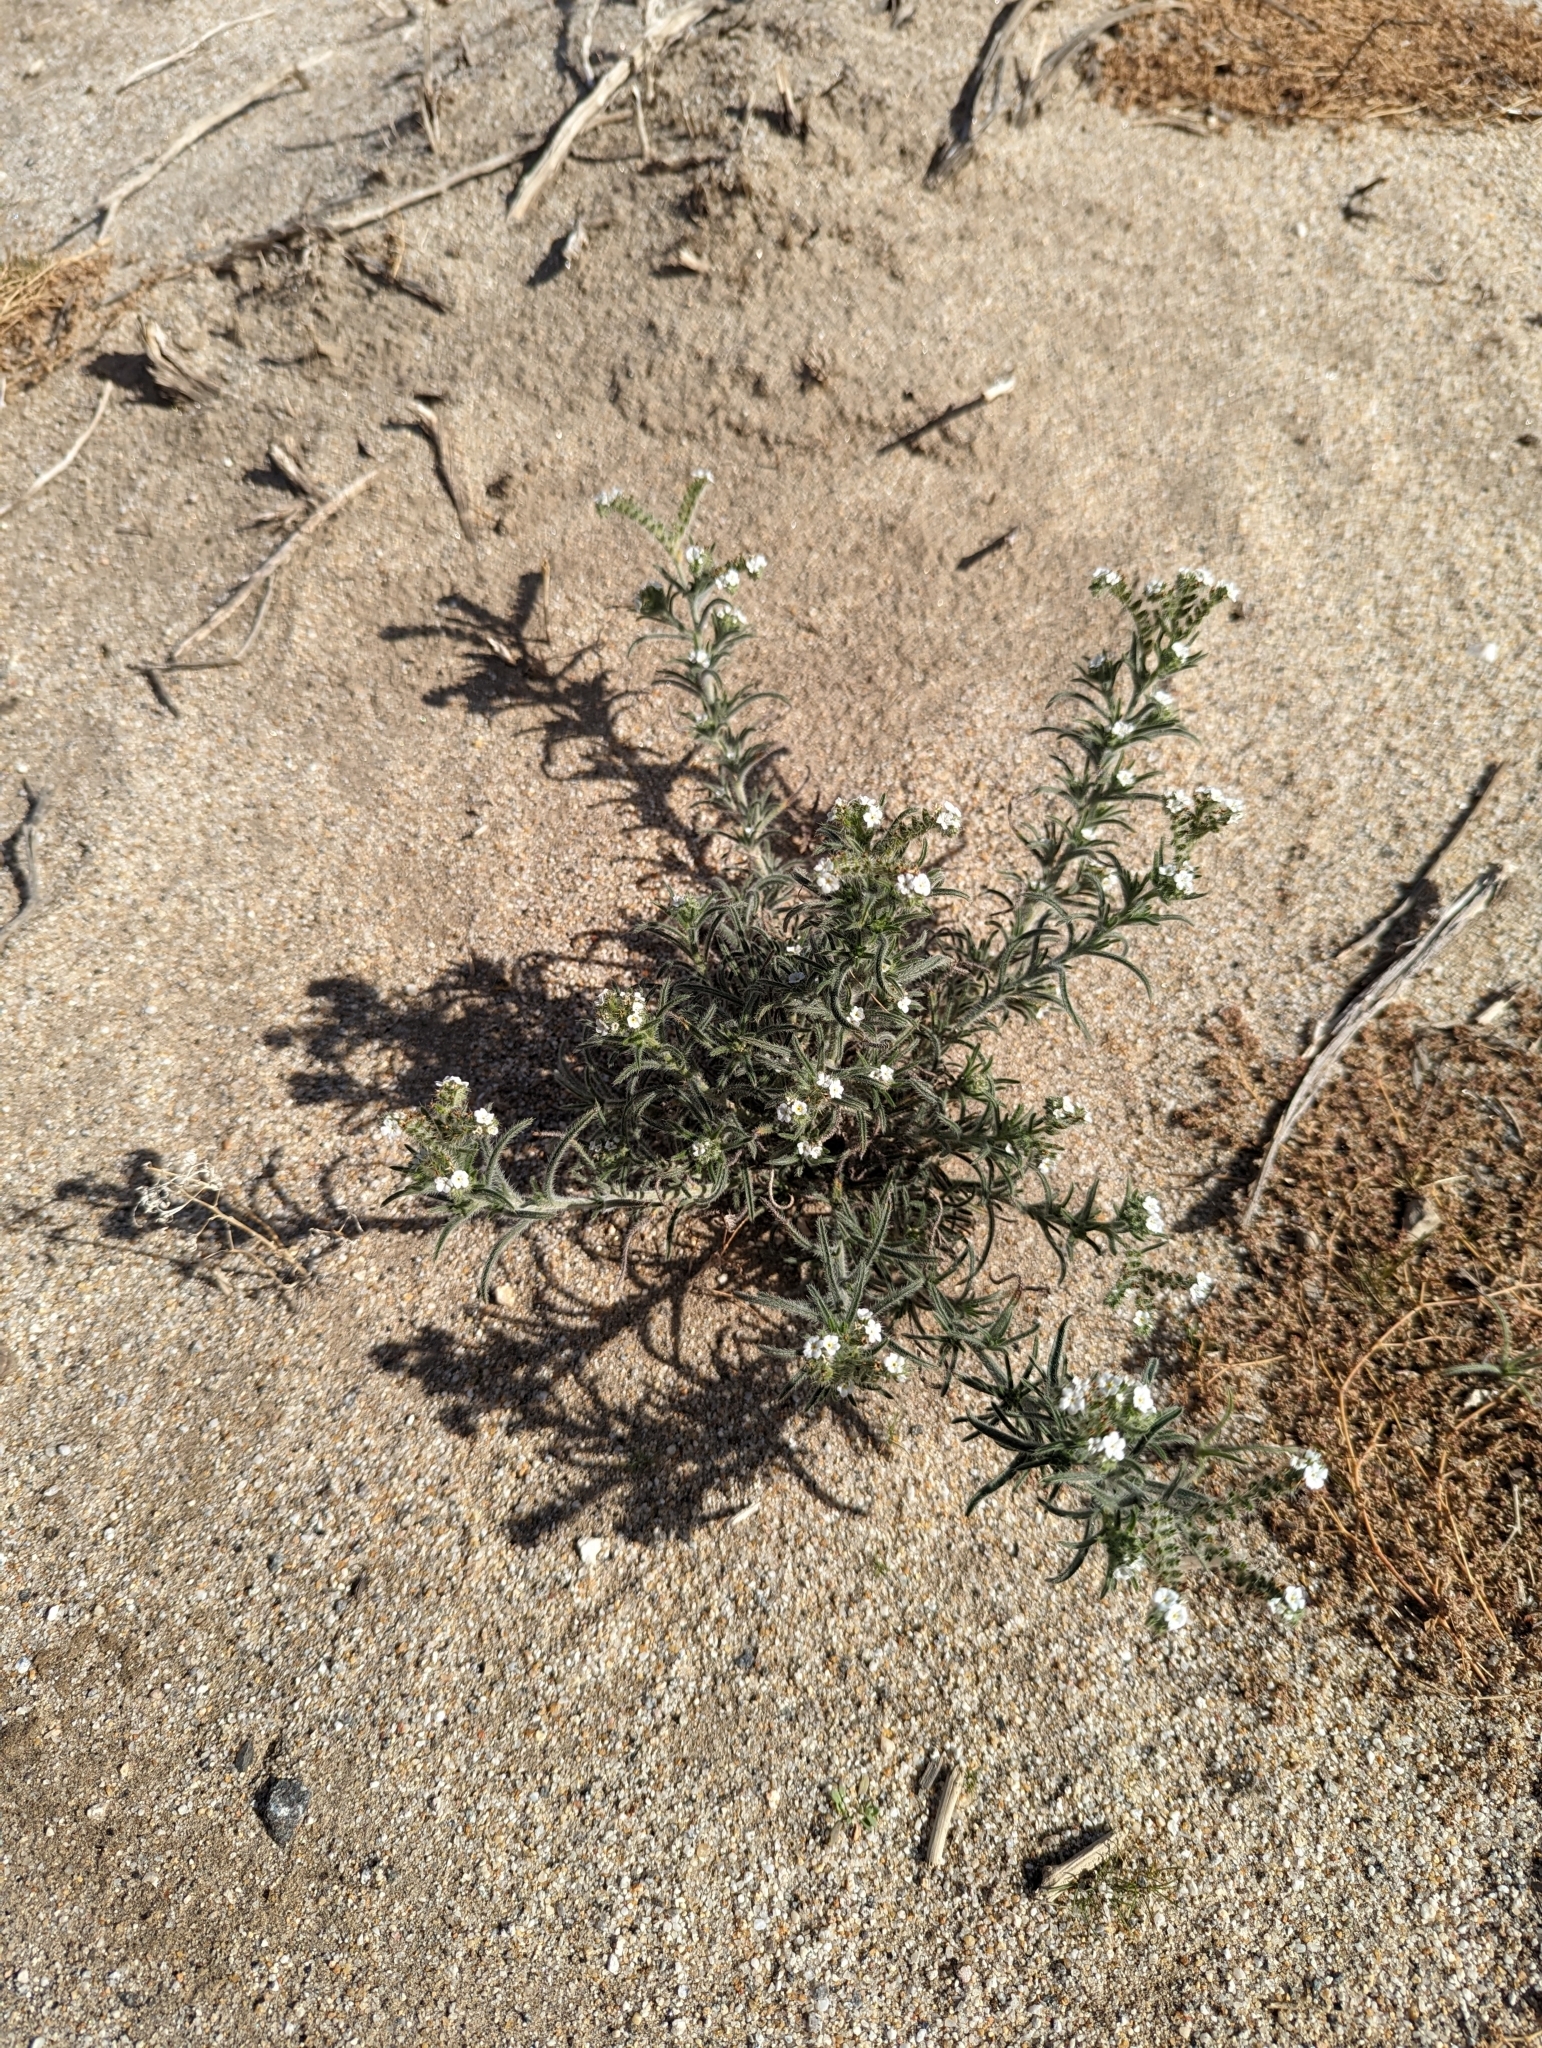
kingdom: Plantae
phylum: Tracheophyta
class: Magnoliopsida
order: Boraginales
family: Boraginaceae
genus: Johnstonella
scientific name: Johnstonella angustifolia
